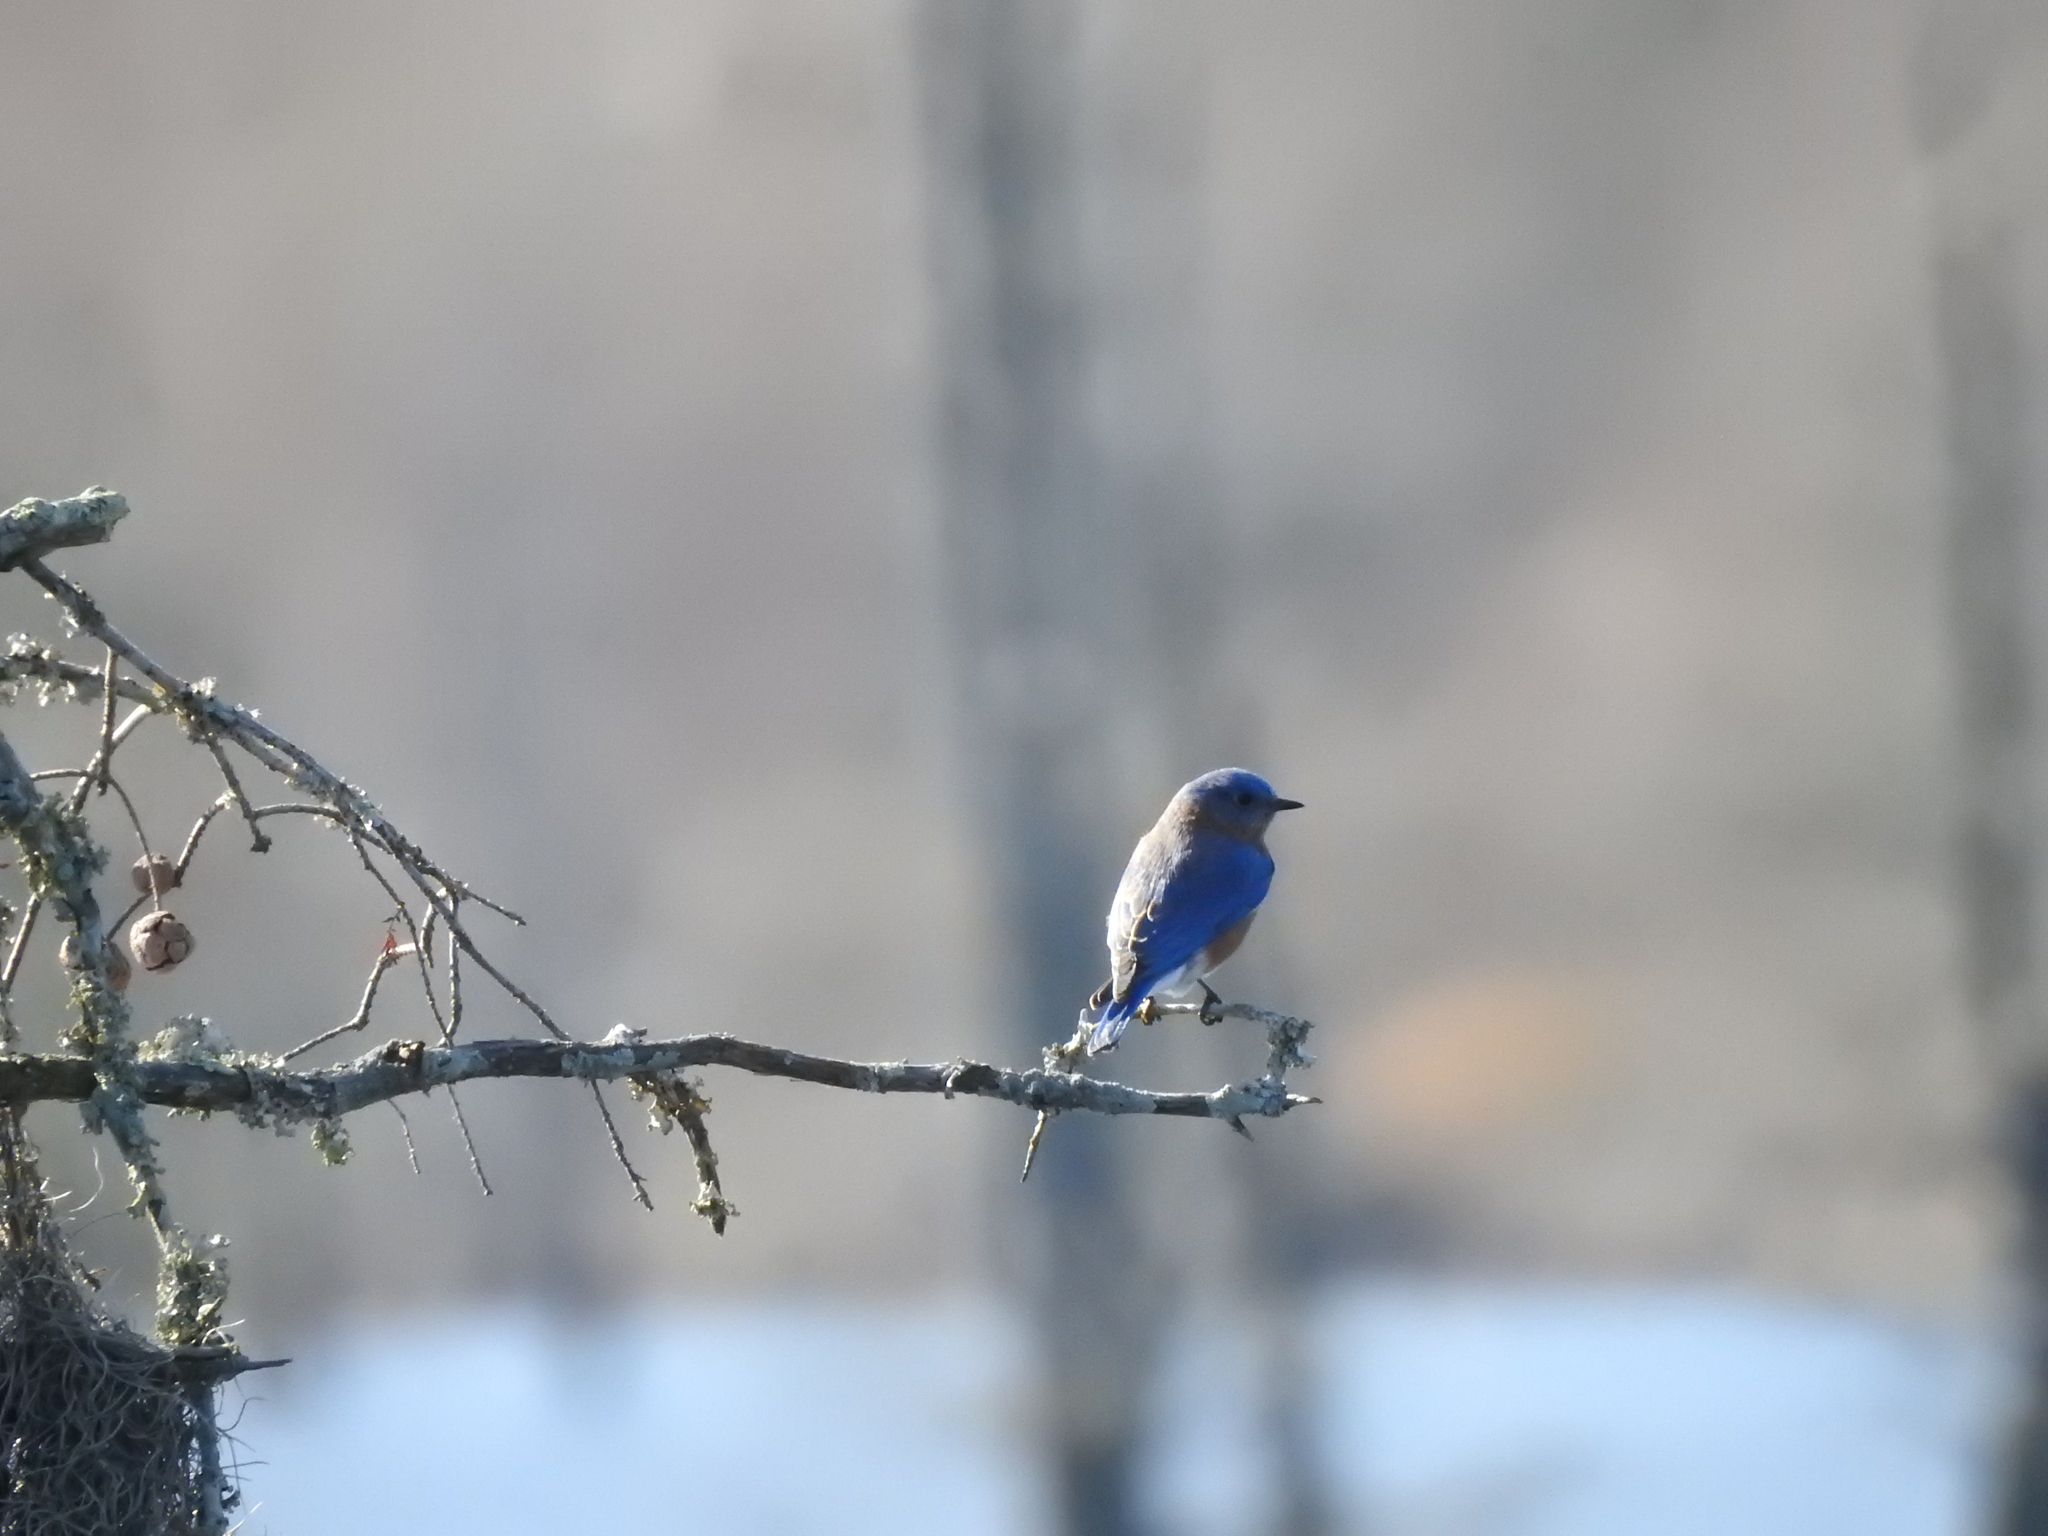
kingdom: Animalia
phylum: Chordata
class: Aves
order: Passeriformes
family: Turdidae
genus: Sialia
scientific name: Sialia sialis
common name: Eastern bluebird
